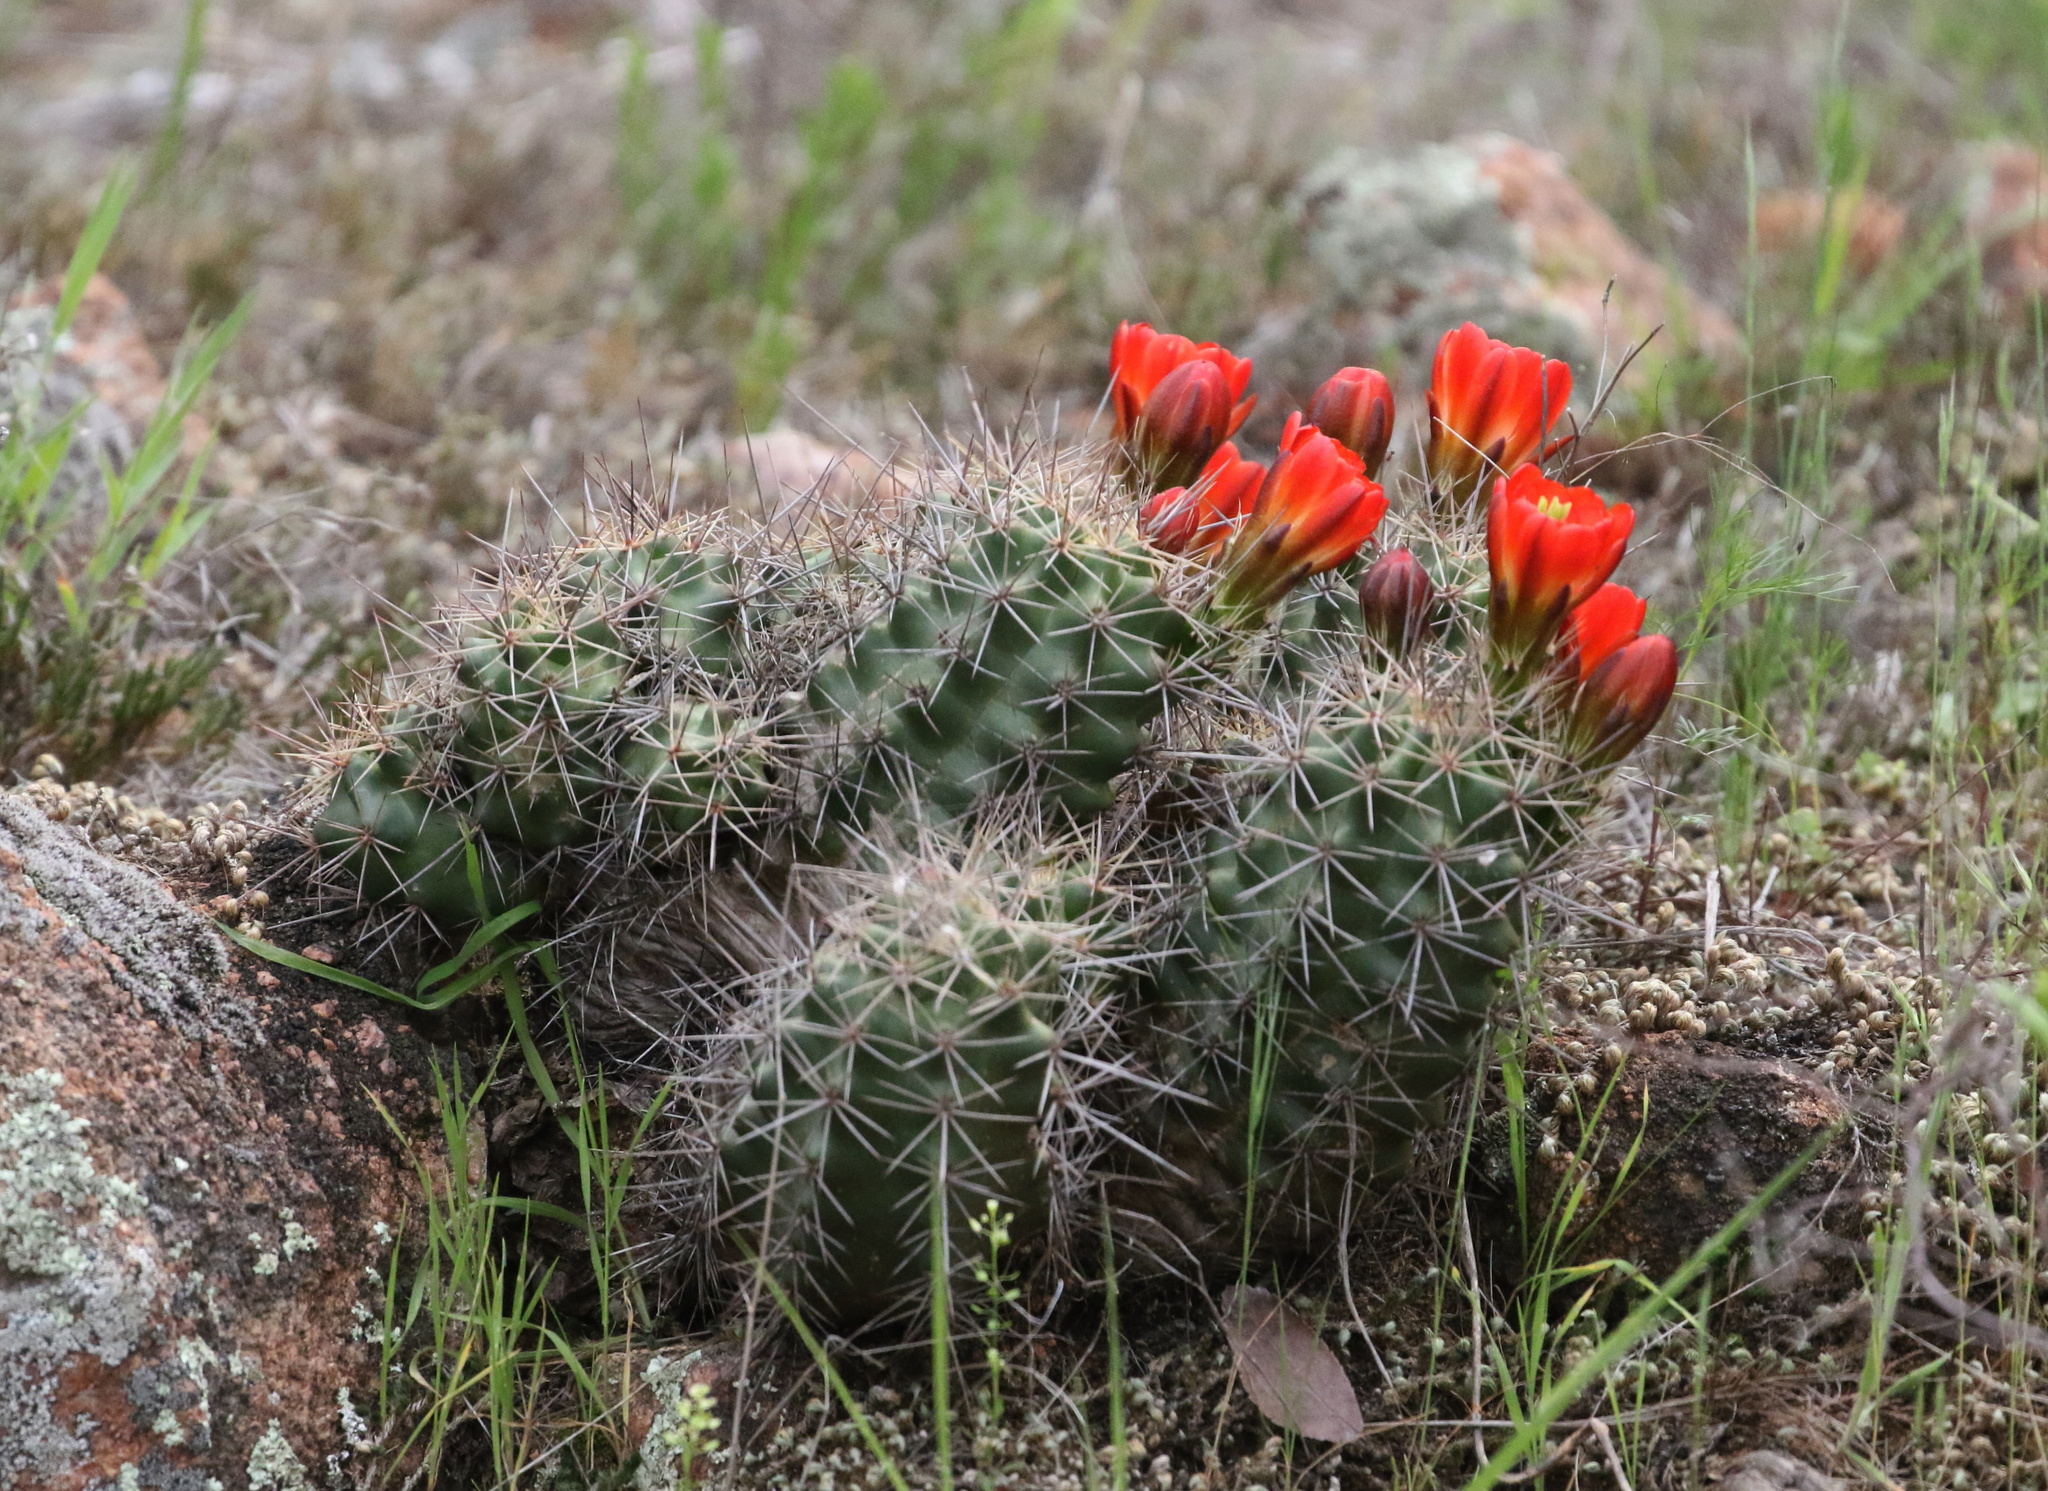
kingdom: Plantae
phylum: Tracheophyta
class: Magnoliopsida
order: Caryophyllales
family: Cactaceae
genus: Echinocereus
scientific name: Echinocereus coccineus
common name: Scarlet hedgehog cactus
